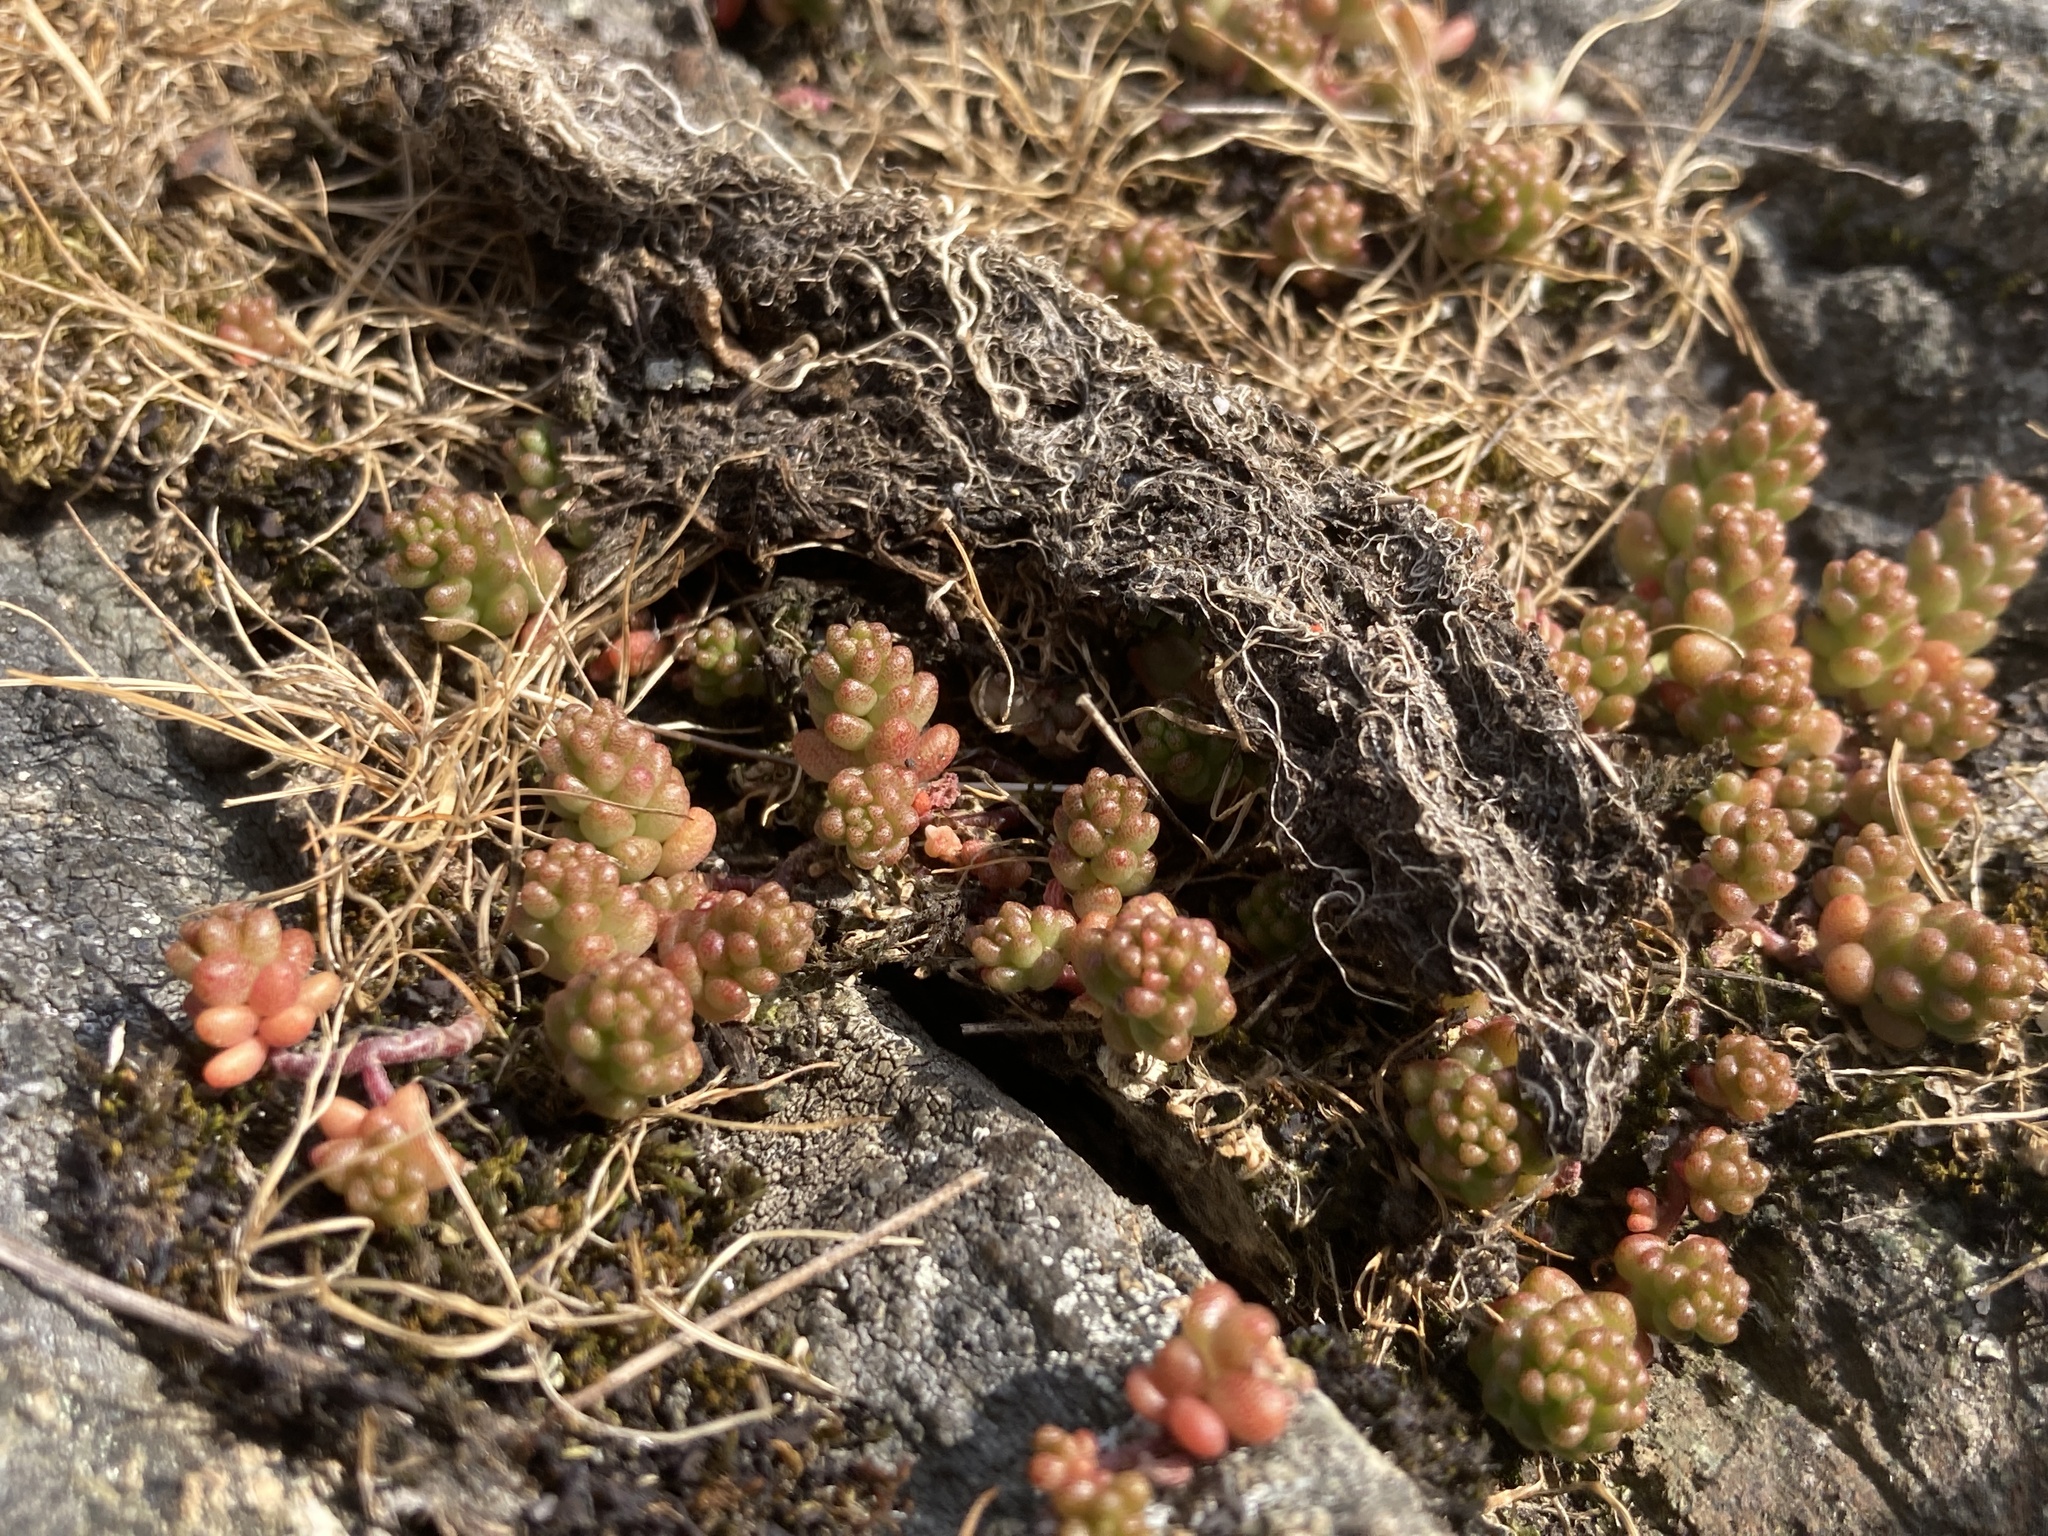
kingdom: Plantae
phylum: Tracheophyta
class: Magnoliopsida
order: Saxifragales
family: Crassulaceae
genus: Sedum
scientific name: Sedum album
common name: White stonecrop
